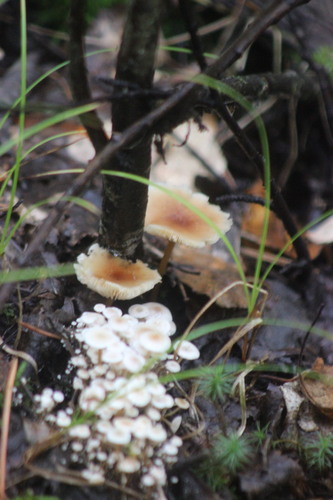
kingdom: Fungi
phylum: Basidiomycota
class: Agaricomycetes
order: Agaricales
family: Tricholomataceae
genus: Collybia
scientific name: Collybia
